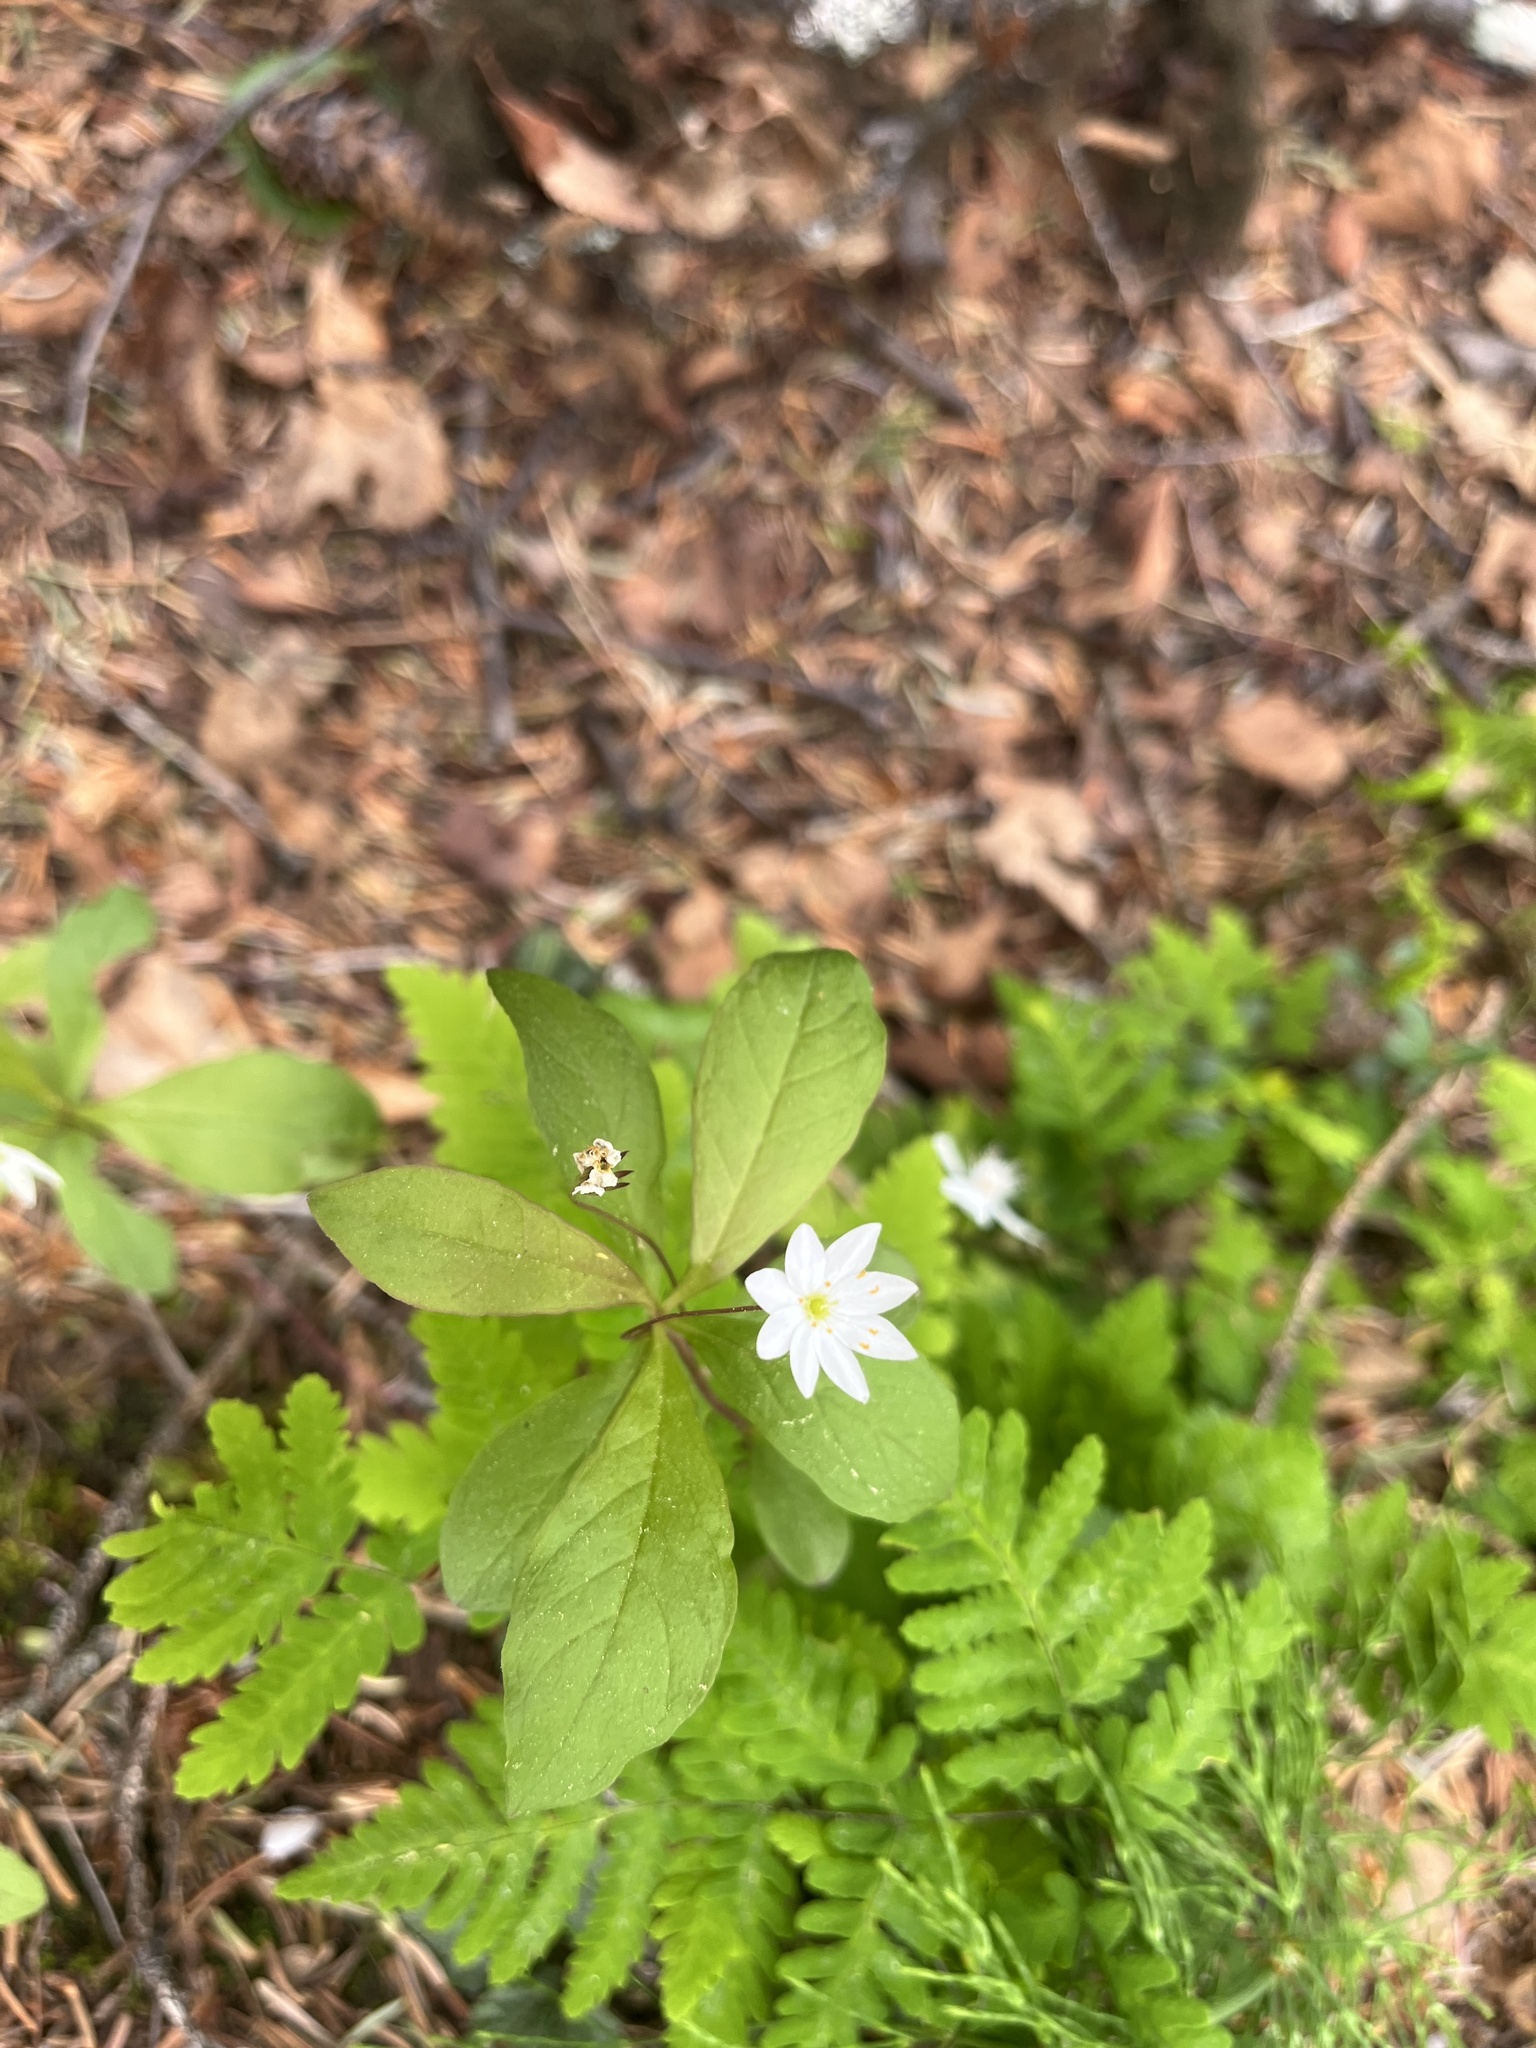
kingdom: Plantae
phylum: Tracheophyta
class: Magnoliopsida
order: Ericales
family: Primulaceae
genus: Lysimachia
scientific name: Lysimachia europaea
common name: Arctic starflower
